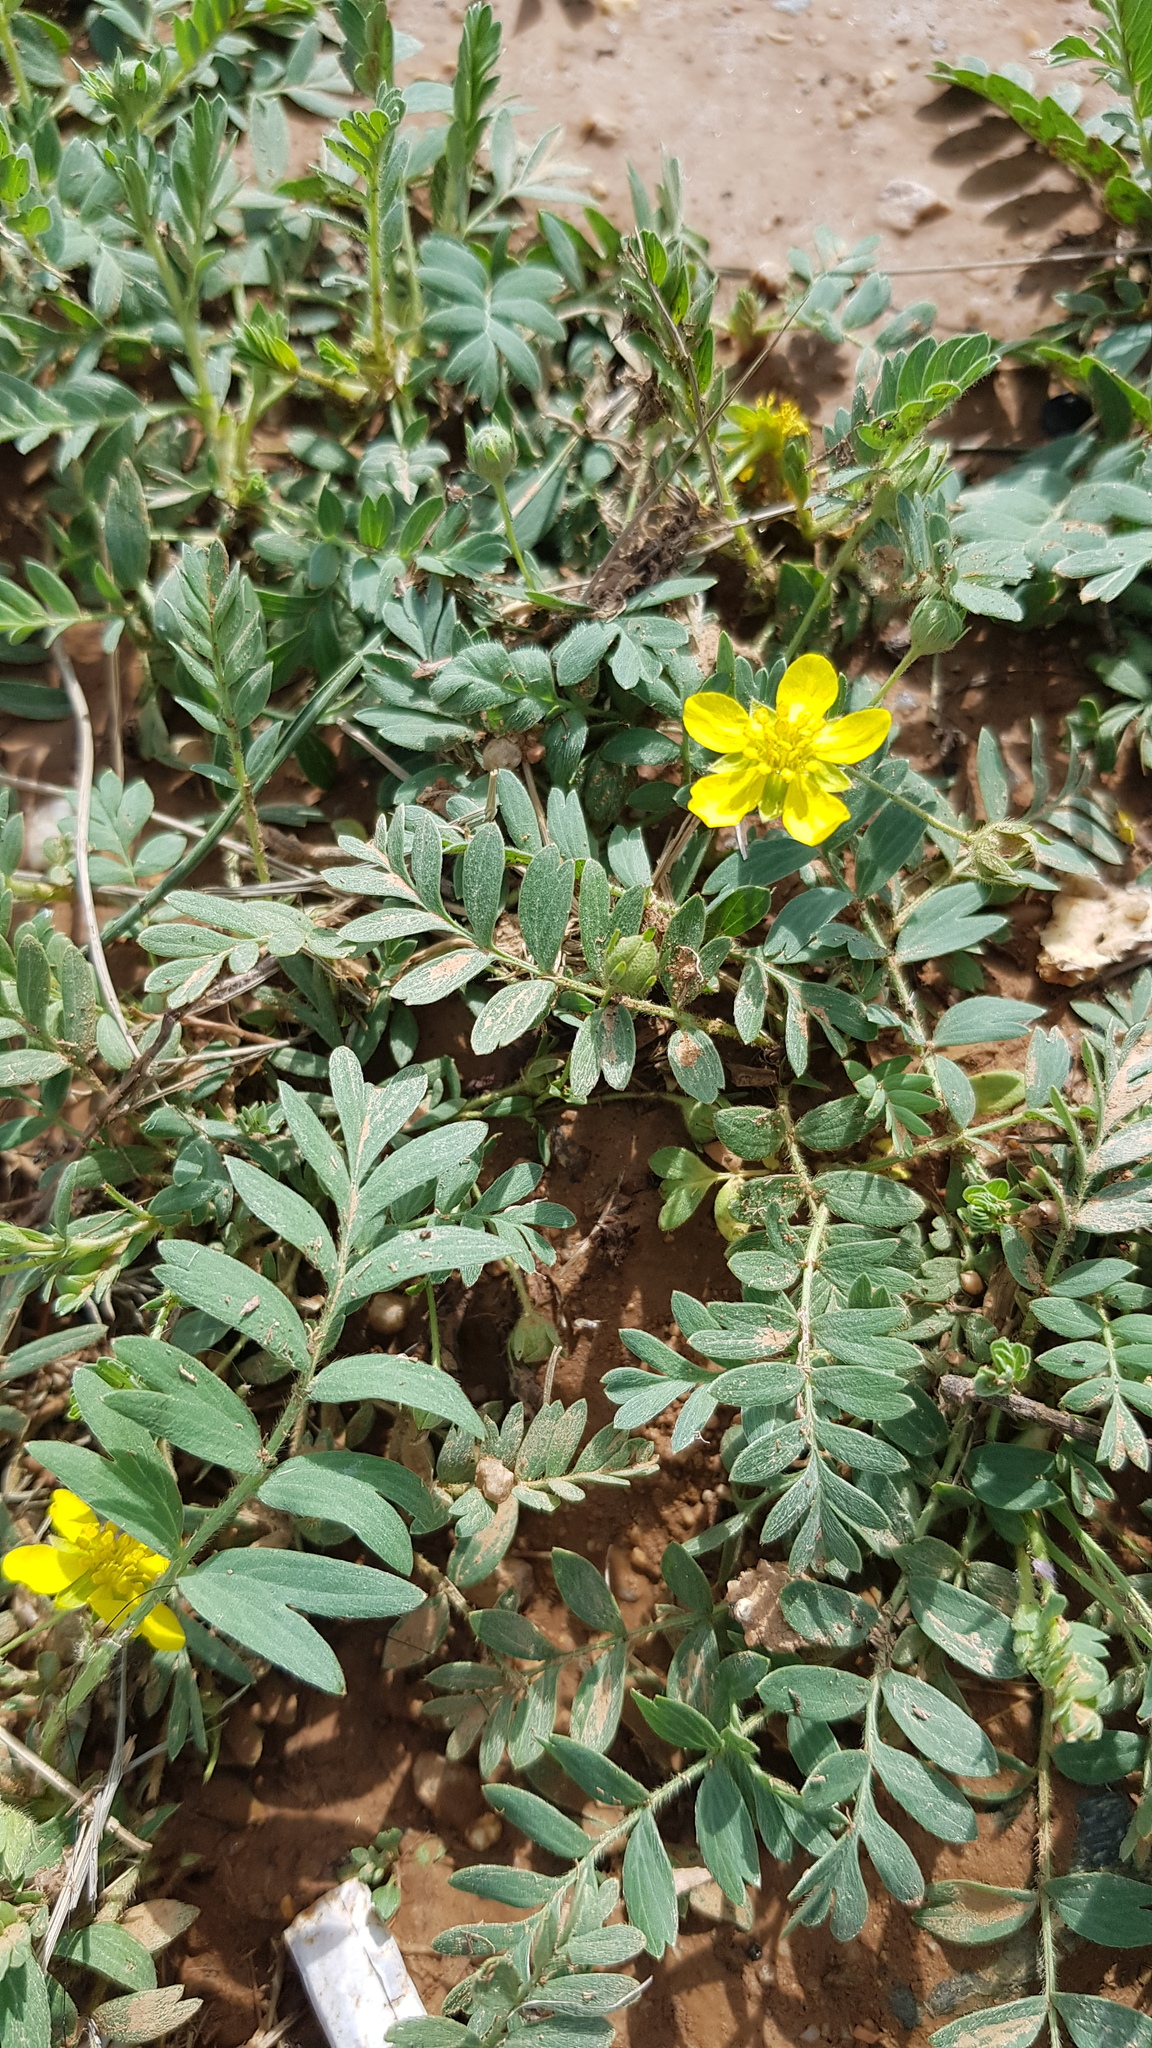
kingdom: Plantae
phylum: Tracheophyta
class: Magnoliopsida
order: Rosales
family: Rosaceae
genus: Sibbaldianthe
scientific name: Sibbaldianthe bifurca
